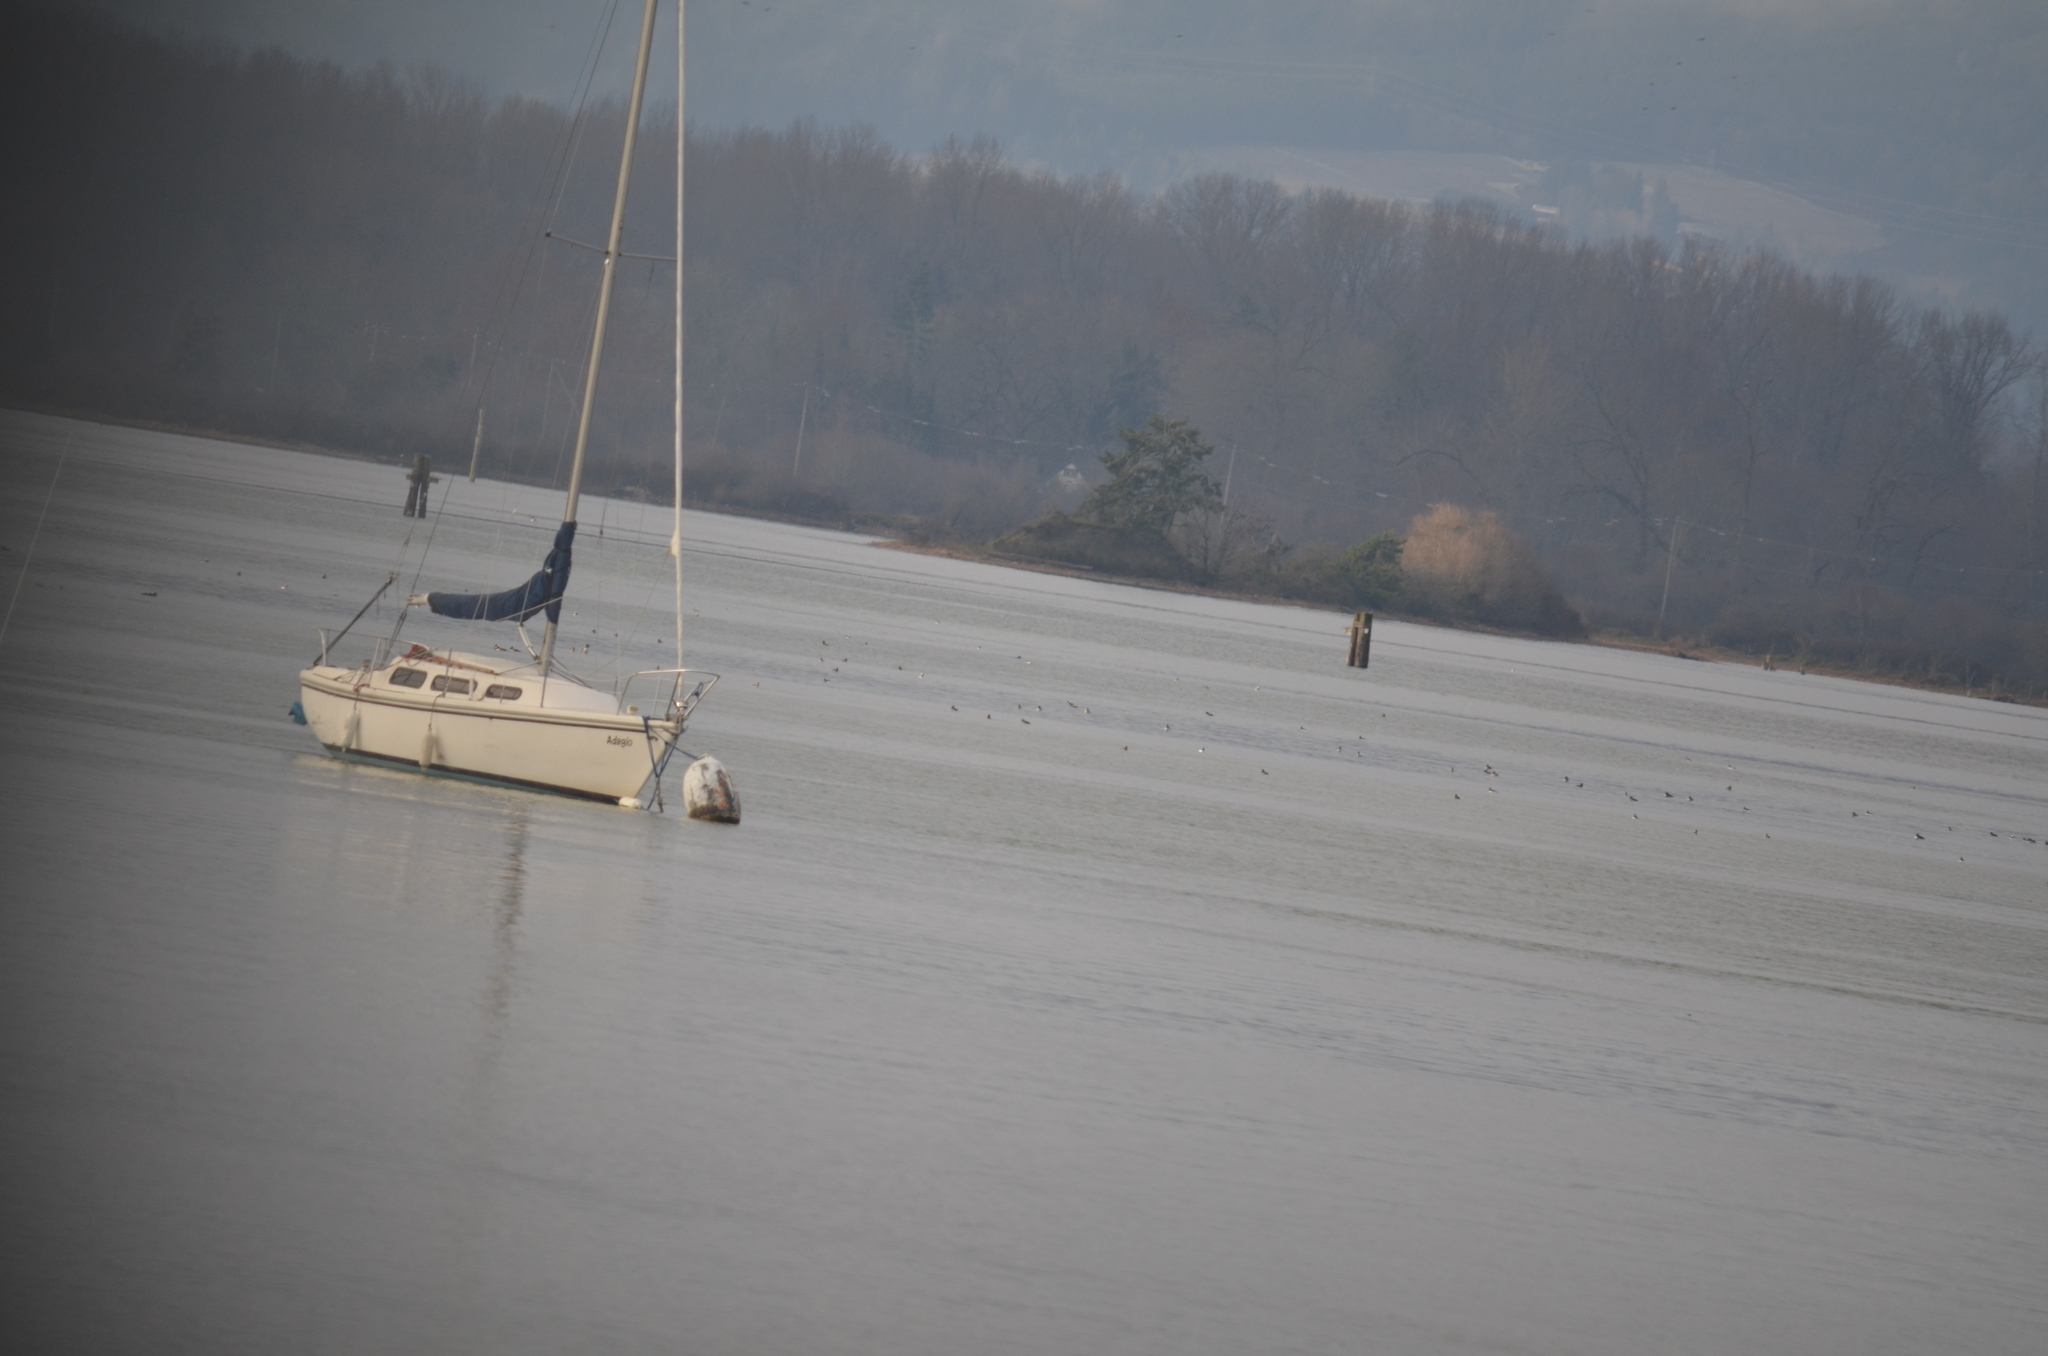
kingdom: Animalia
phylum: Chordata
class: Aves
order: Anseriformes
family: Anatidae
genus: Bucephala
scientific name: Bucephala albeola
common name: Bufflehead
